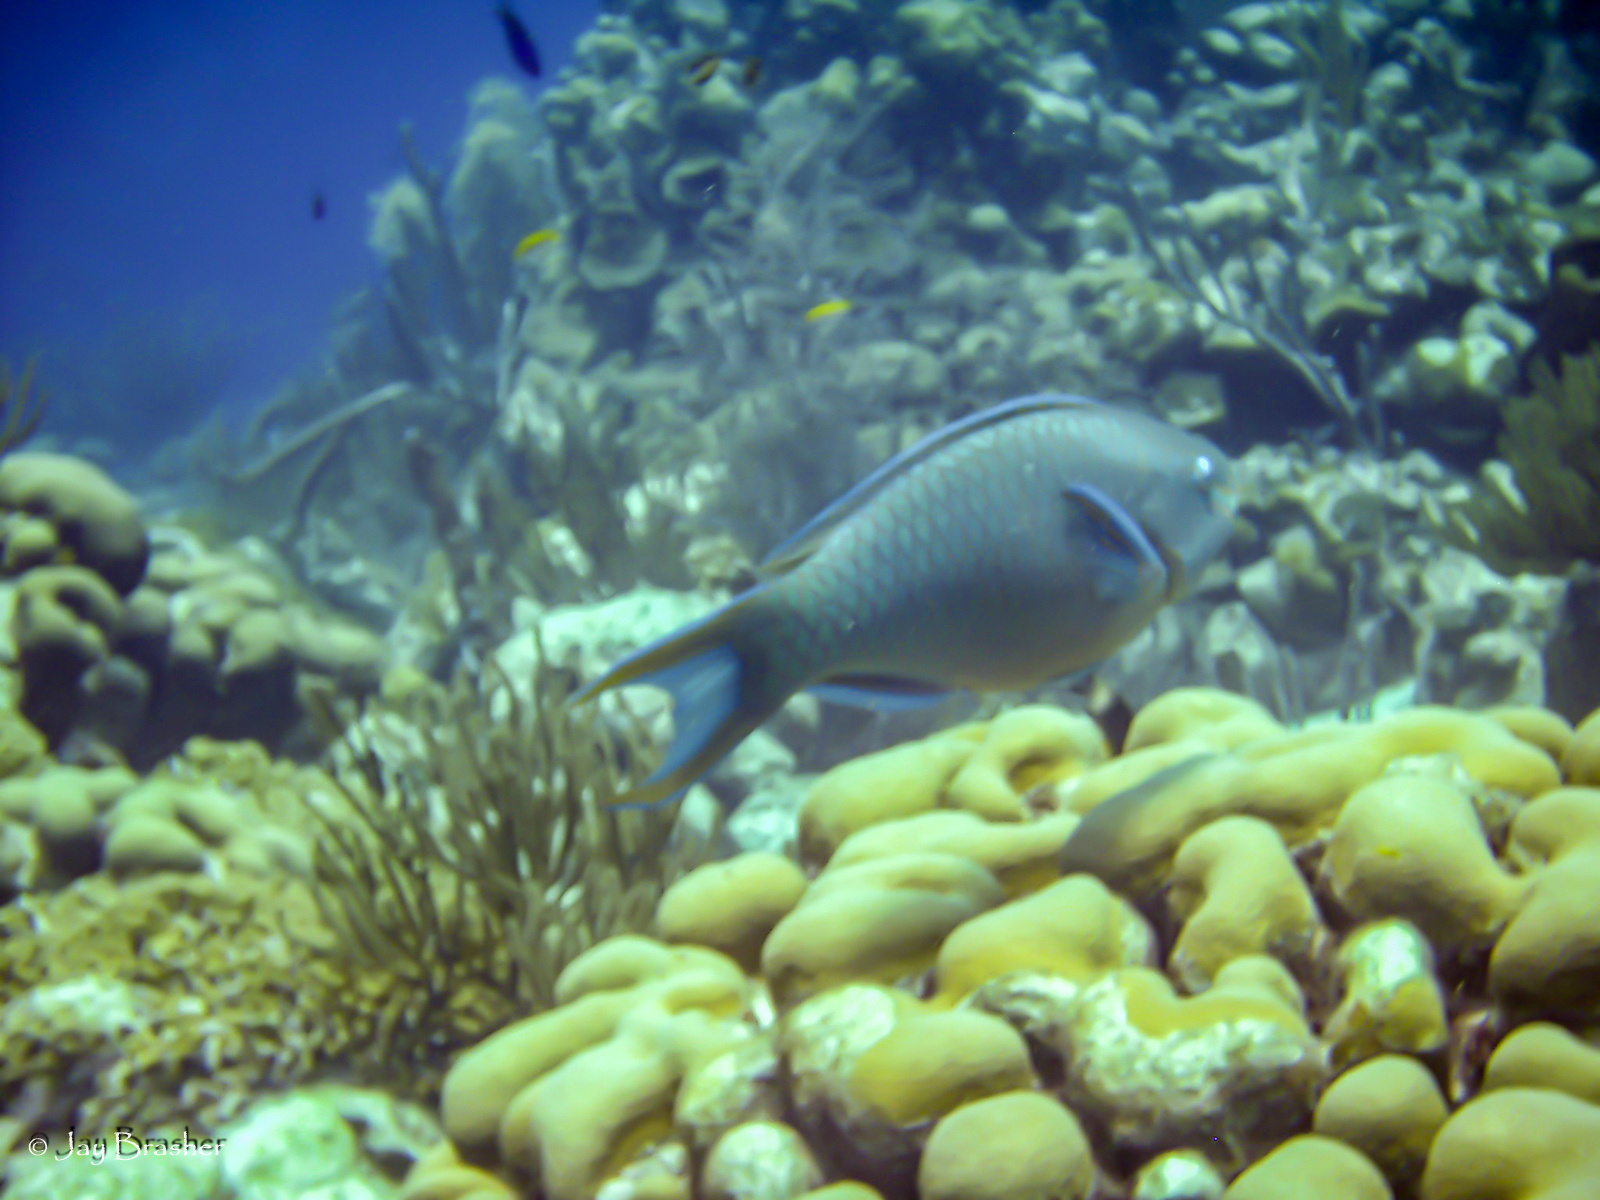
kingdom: Animalia
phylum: Chordata
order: Perciformes
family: Scaridae
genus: Scarus
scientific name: Scarus vetula
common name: Queen parrotfish
